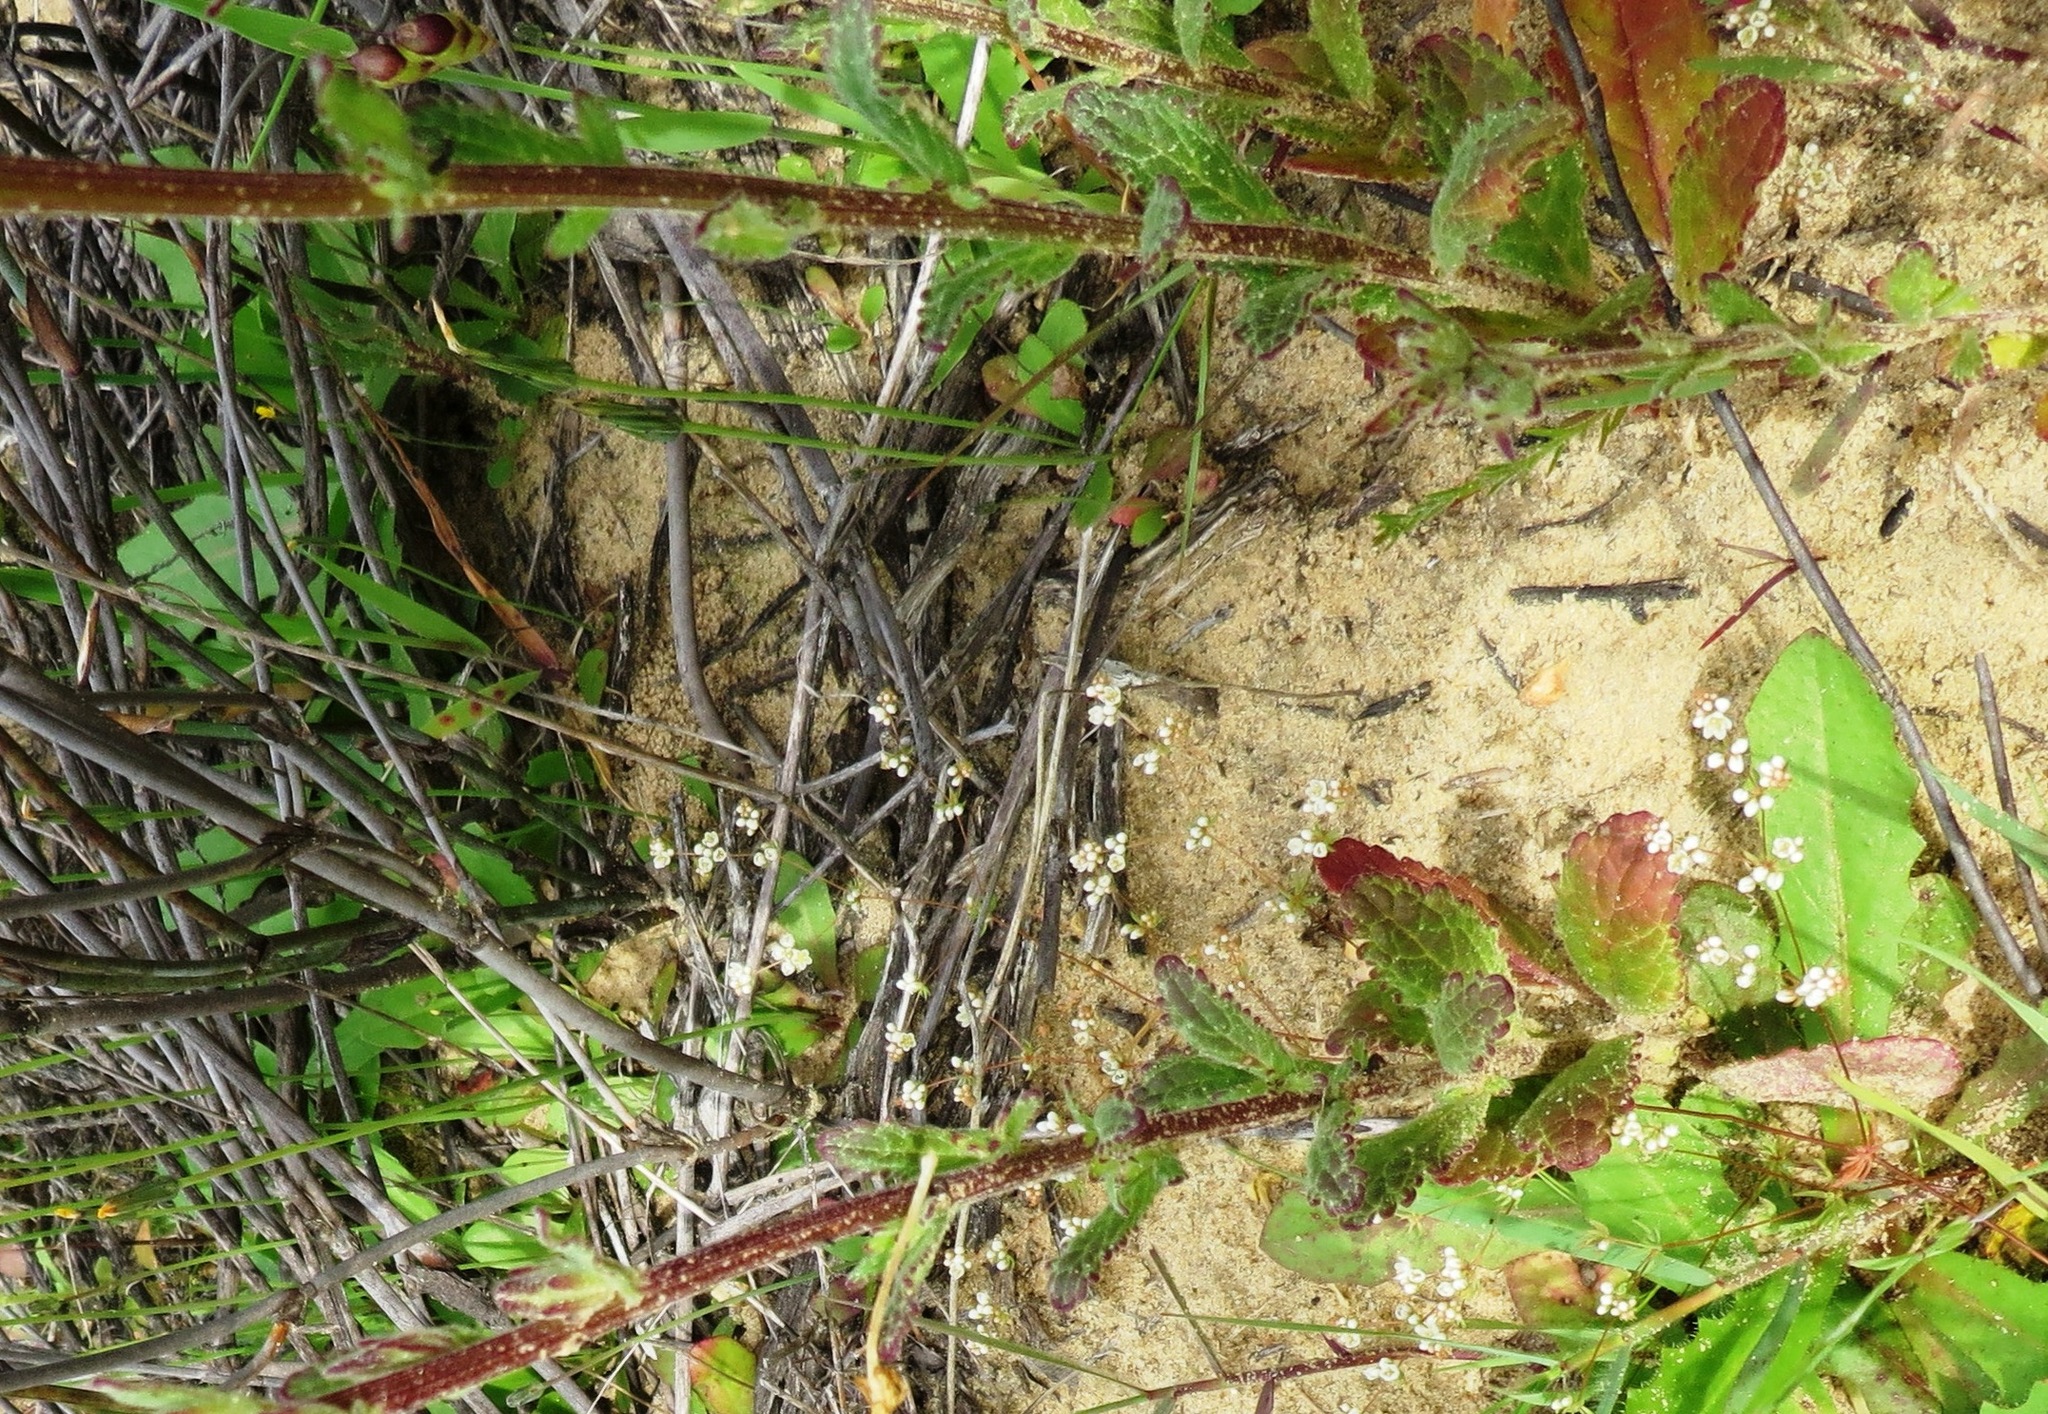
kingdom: Plantae
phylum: Tracheophyta
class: Magnoliopsida
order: Lamiales
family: Scrophulariaceae
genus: Lyperia
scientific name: Lyperia tristis
